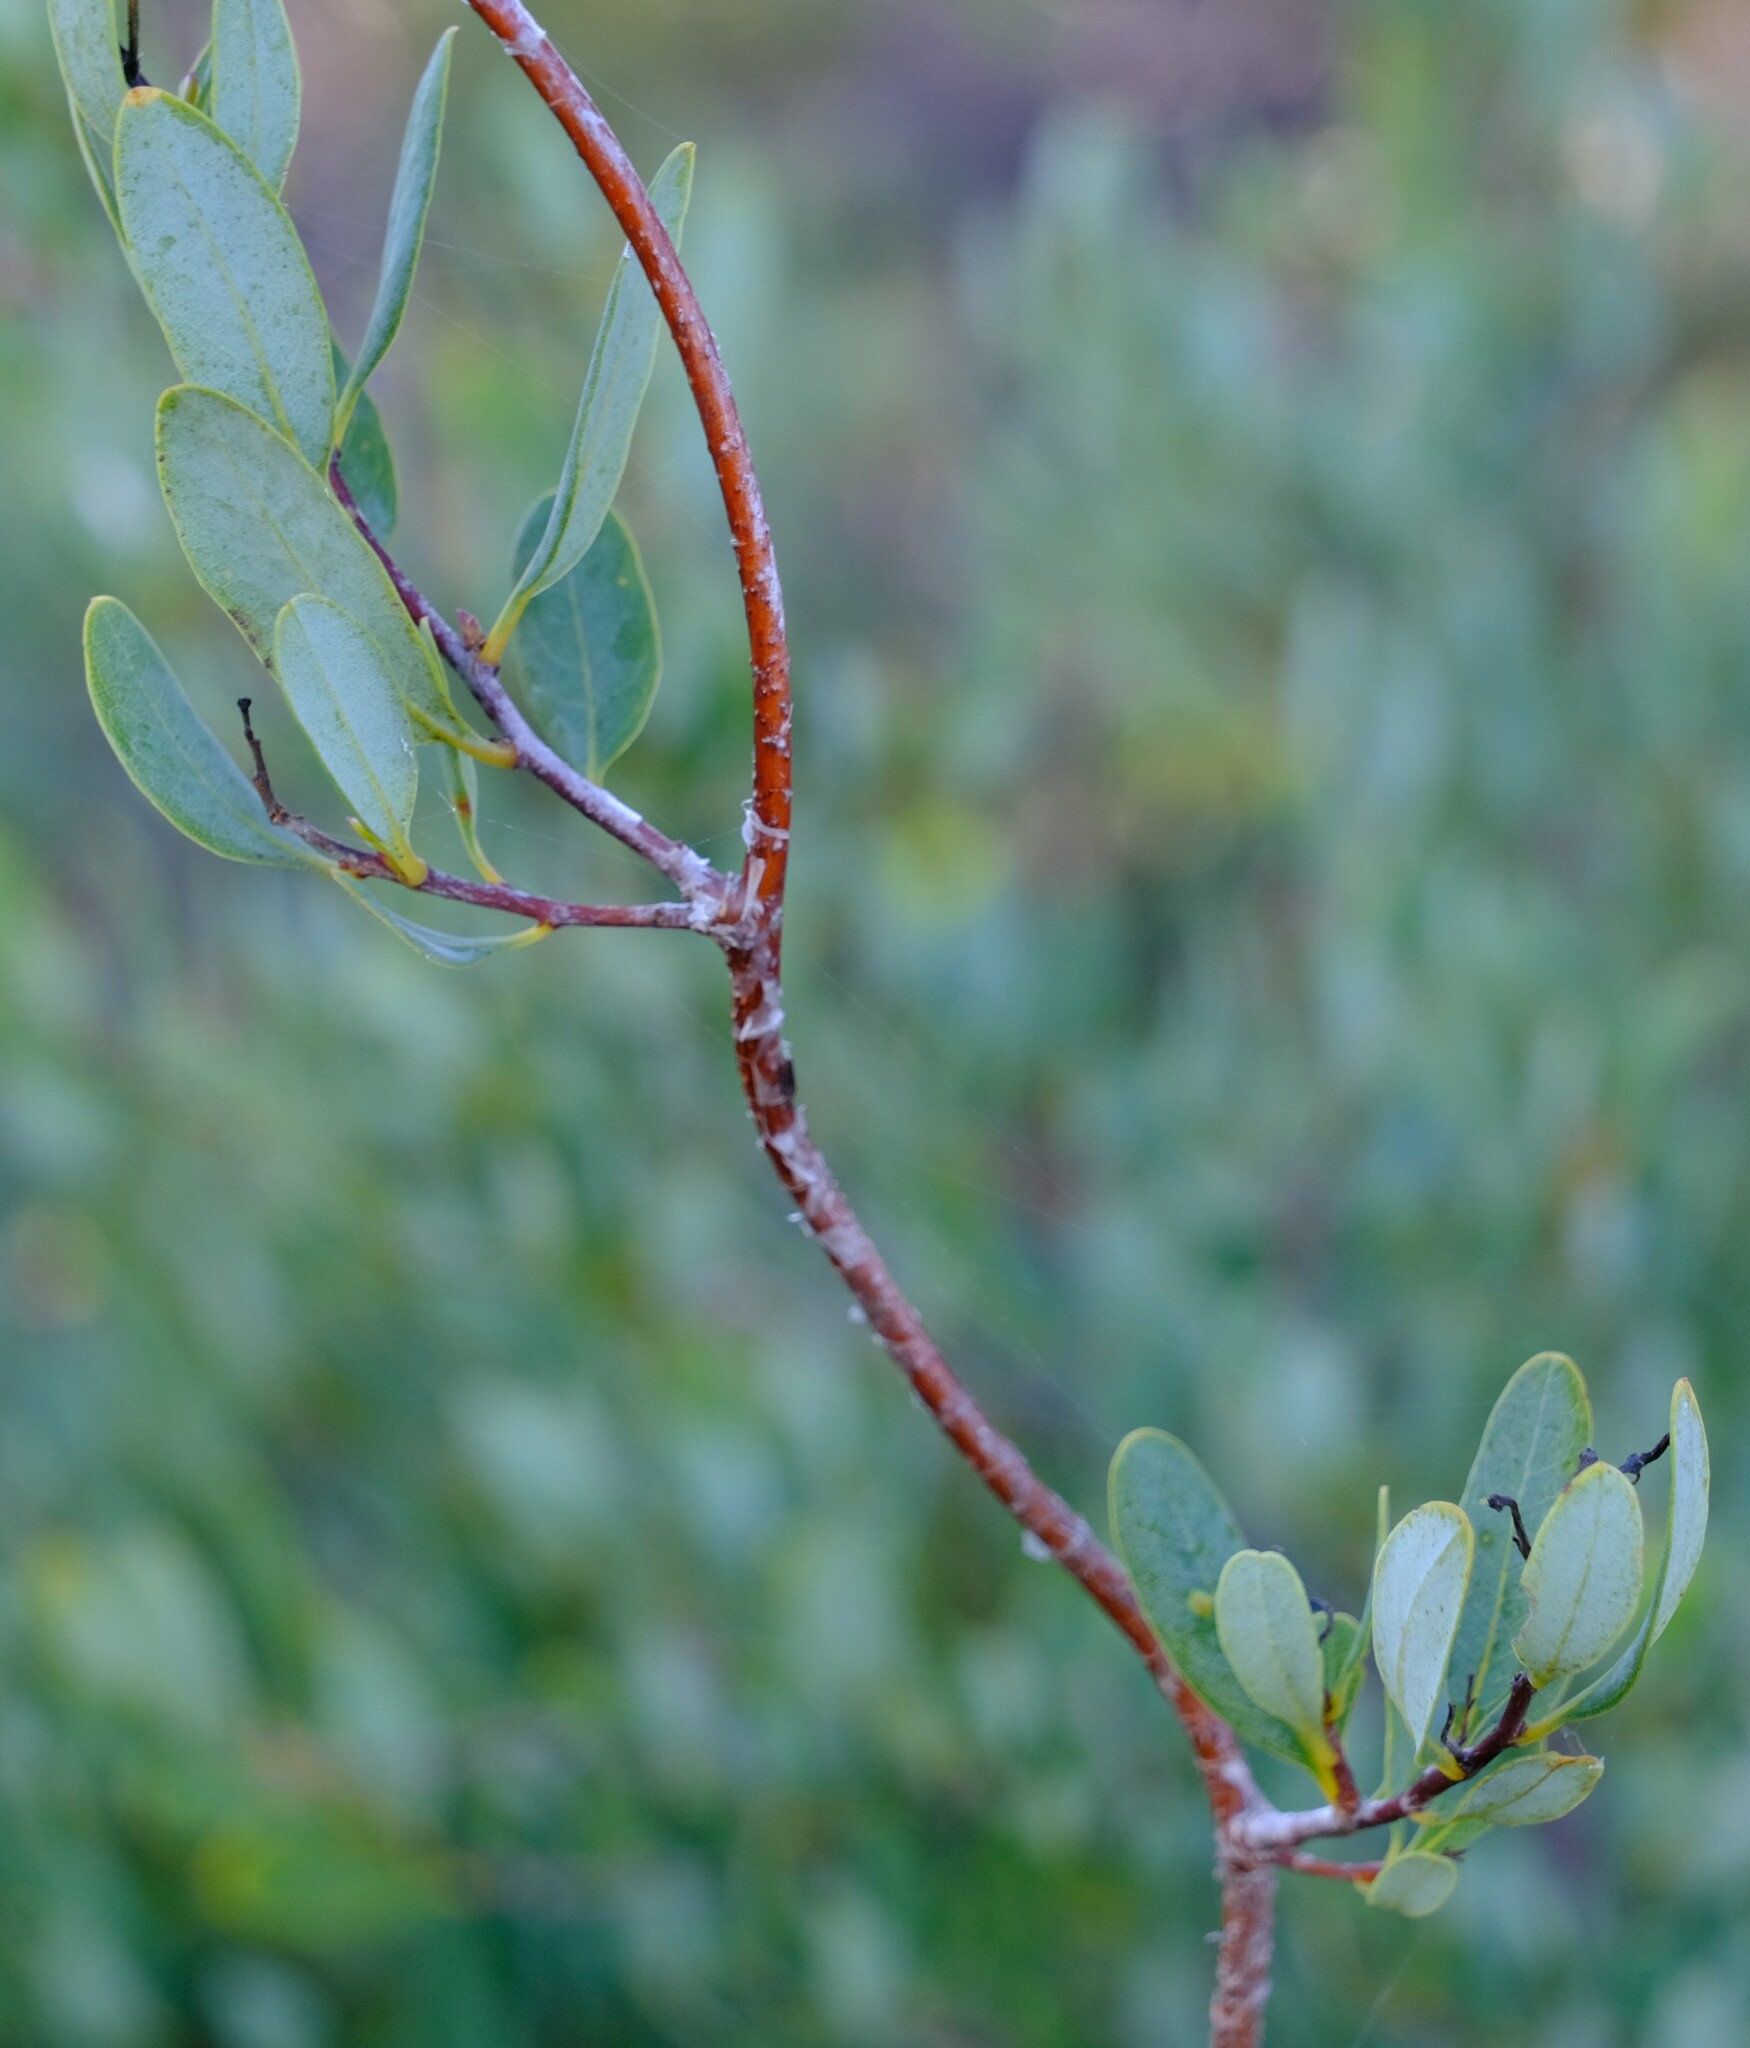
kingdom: Plantae
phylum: Tracheophyta
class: Magnoliopsida
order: Apiales
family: Pittosporaceae
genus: Marianthus
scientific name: Marianthus bicolor
